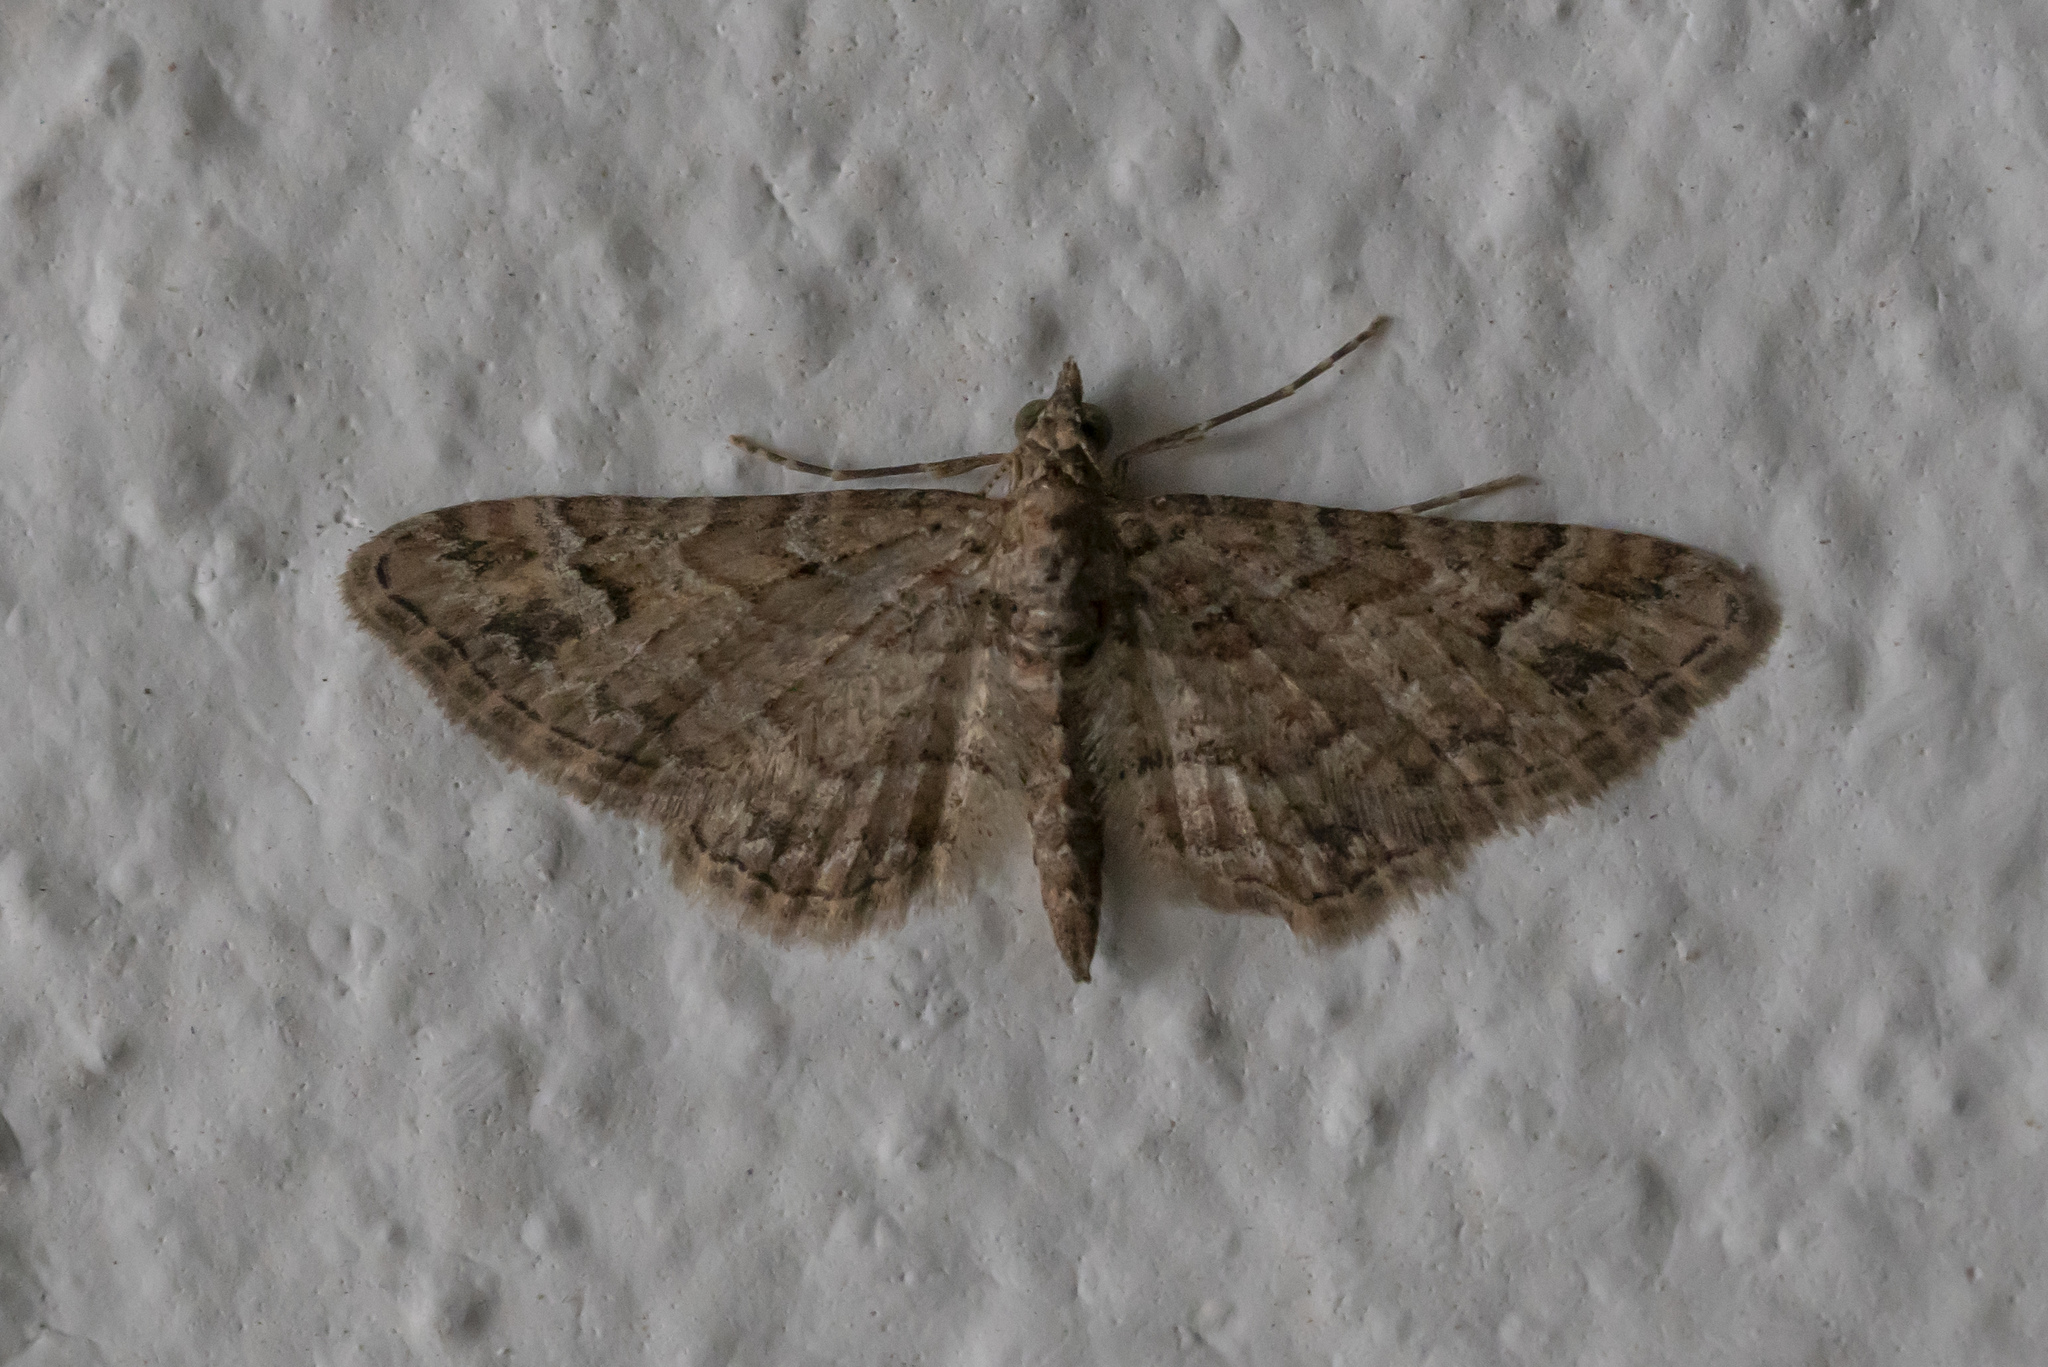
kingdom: Animalia
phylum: Arthropoda
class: Insecta
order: Lepidoptera
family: Geometridae
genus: Gymnoscelis
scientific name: Gymnoscelis rufifasciata
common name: Double-striped pug
